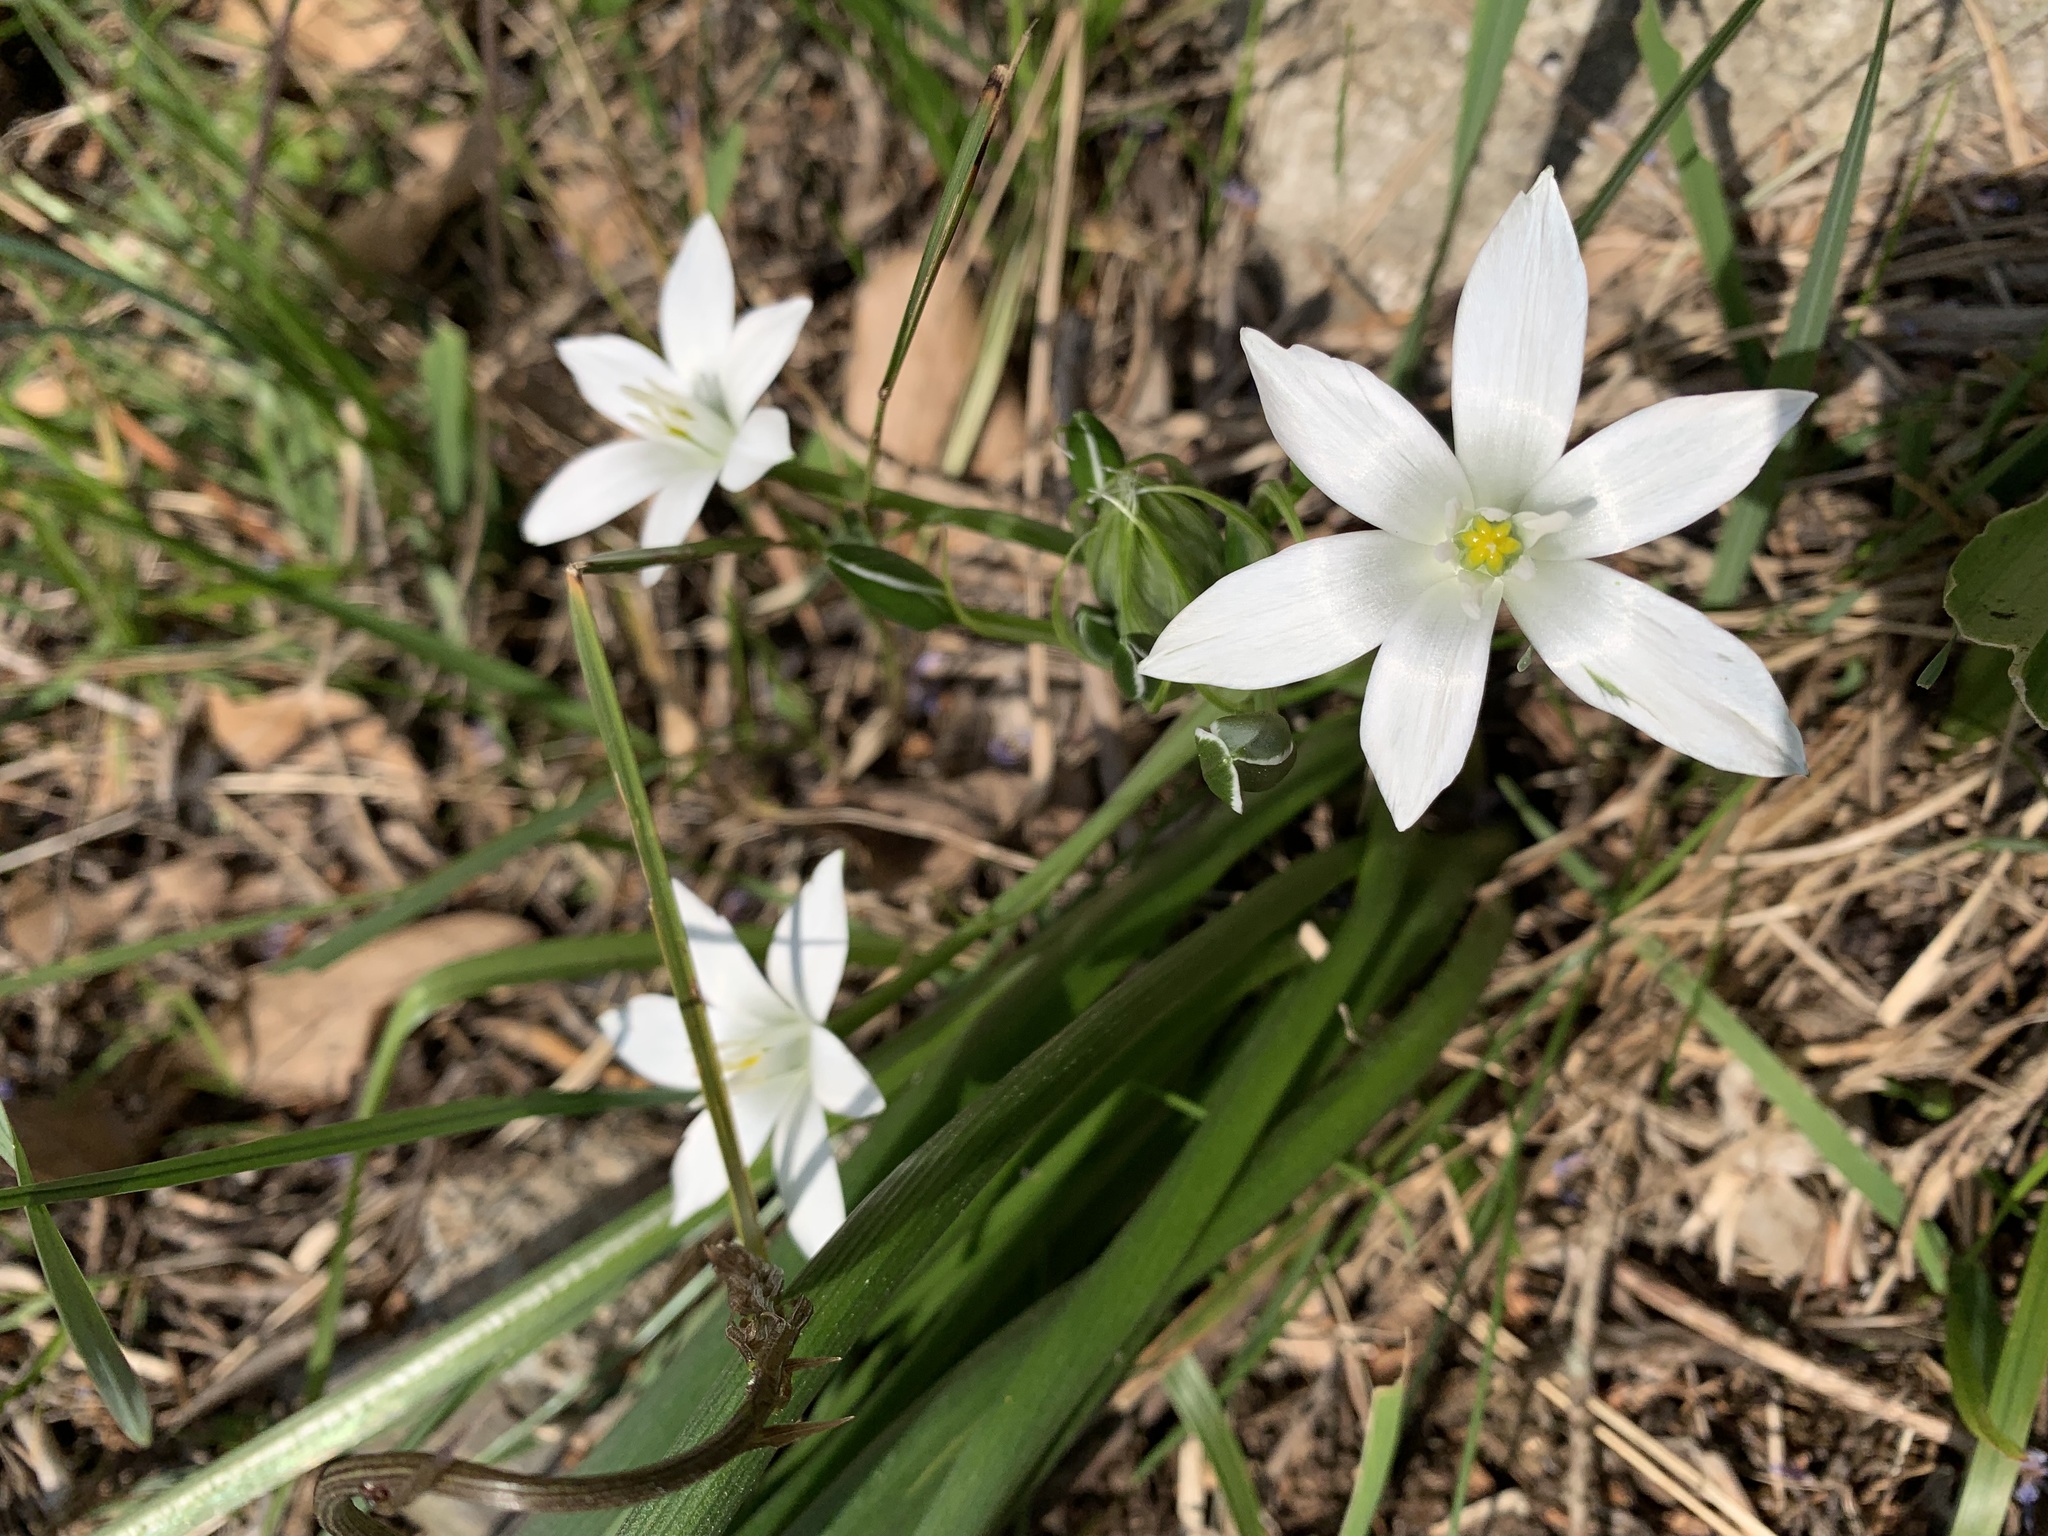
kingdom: Plantae
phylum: Tracheophyta
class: Liliopsida
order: Asparagales
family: Asparagaceae
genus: Ornithogalum
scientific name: Ornithogalum
